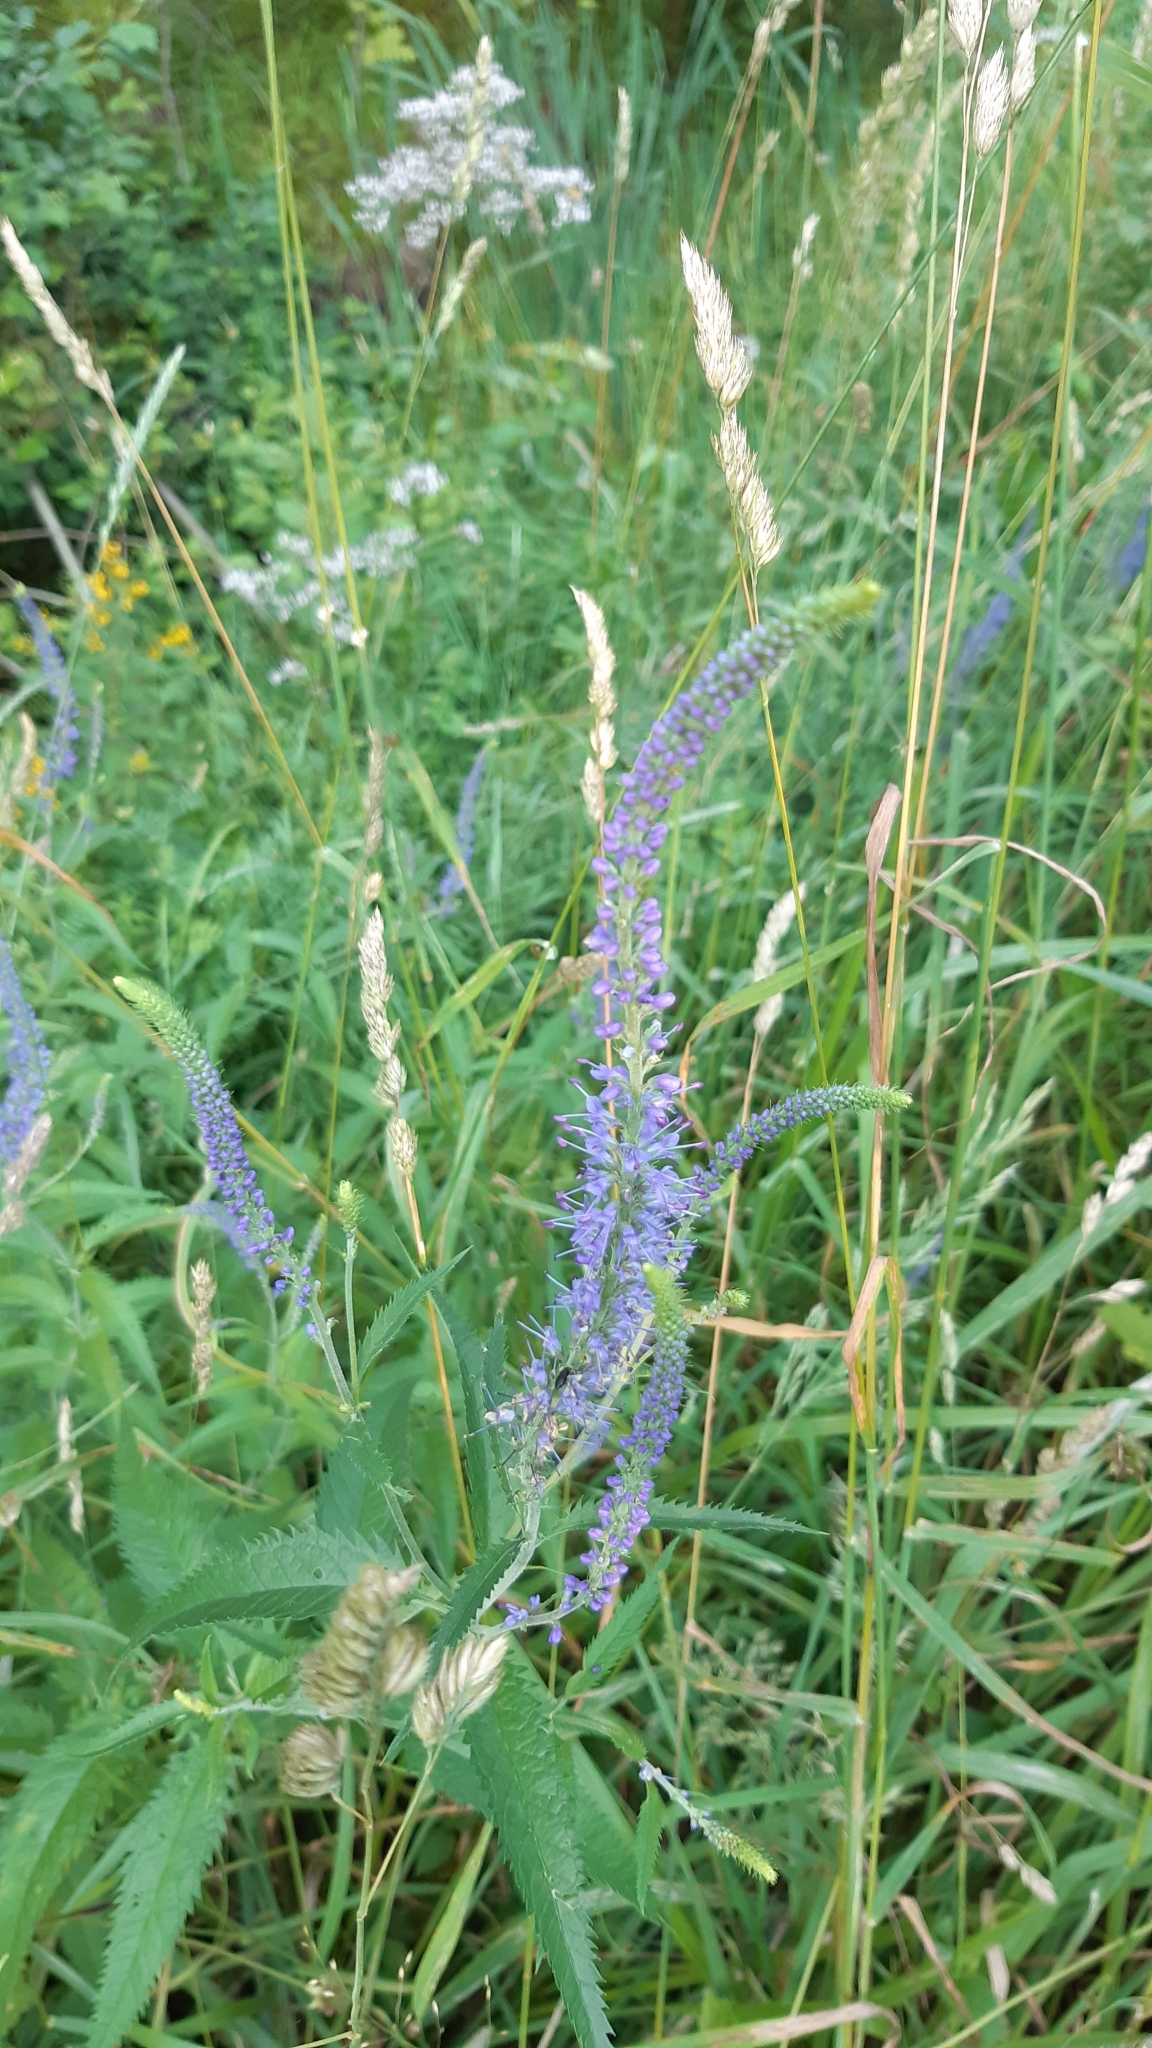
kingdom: Plantae
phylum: Tracheophyta
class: Magnoliopsida
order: Lamiales
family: Plantaginaceae
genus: Veronica
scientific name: Veronica longifolia
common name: Garden speedwell
